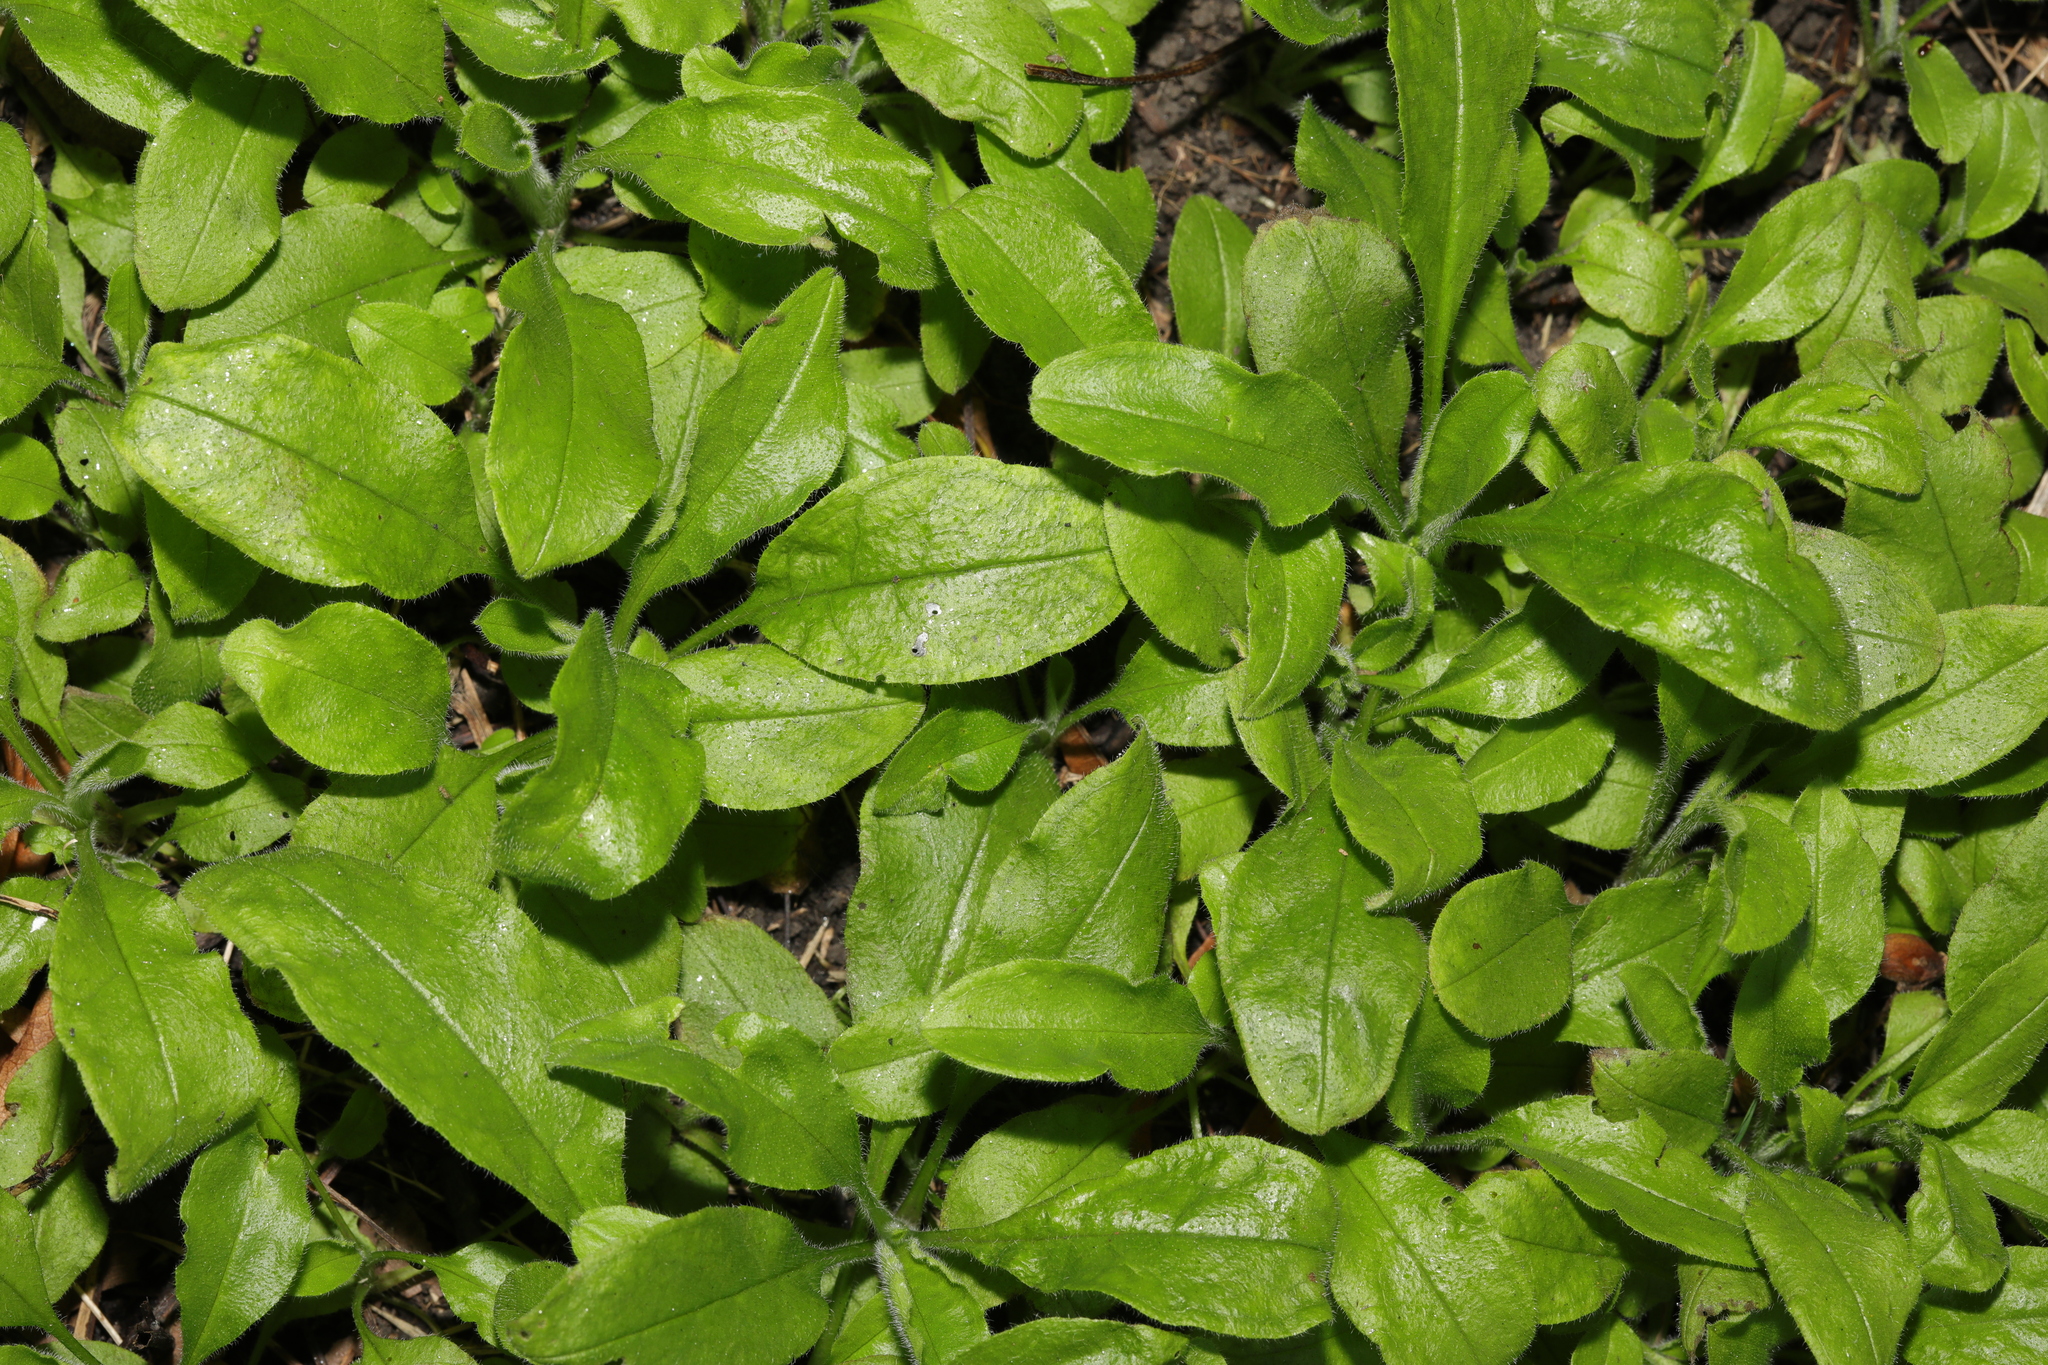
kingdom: Plantae
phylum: Tracheophyta
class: Magnoliopsida
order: Boraginales
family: Boraginaceae
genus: Myosotis
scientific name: Myosotis sylvatica
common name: Wood forget-me-not
